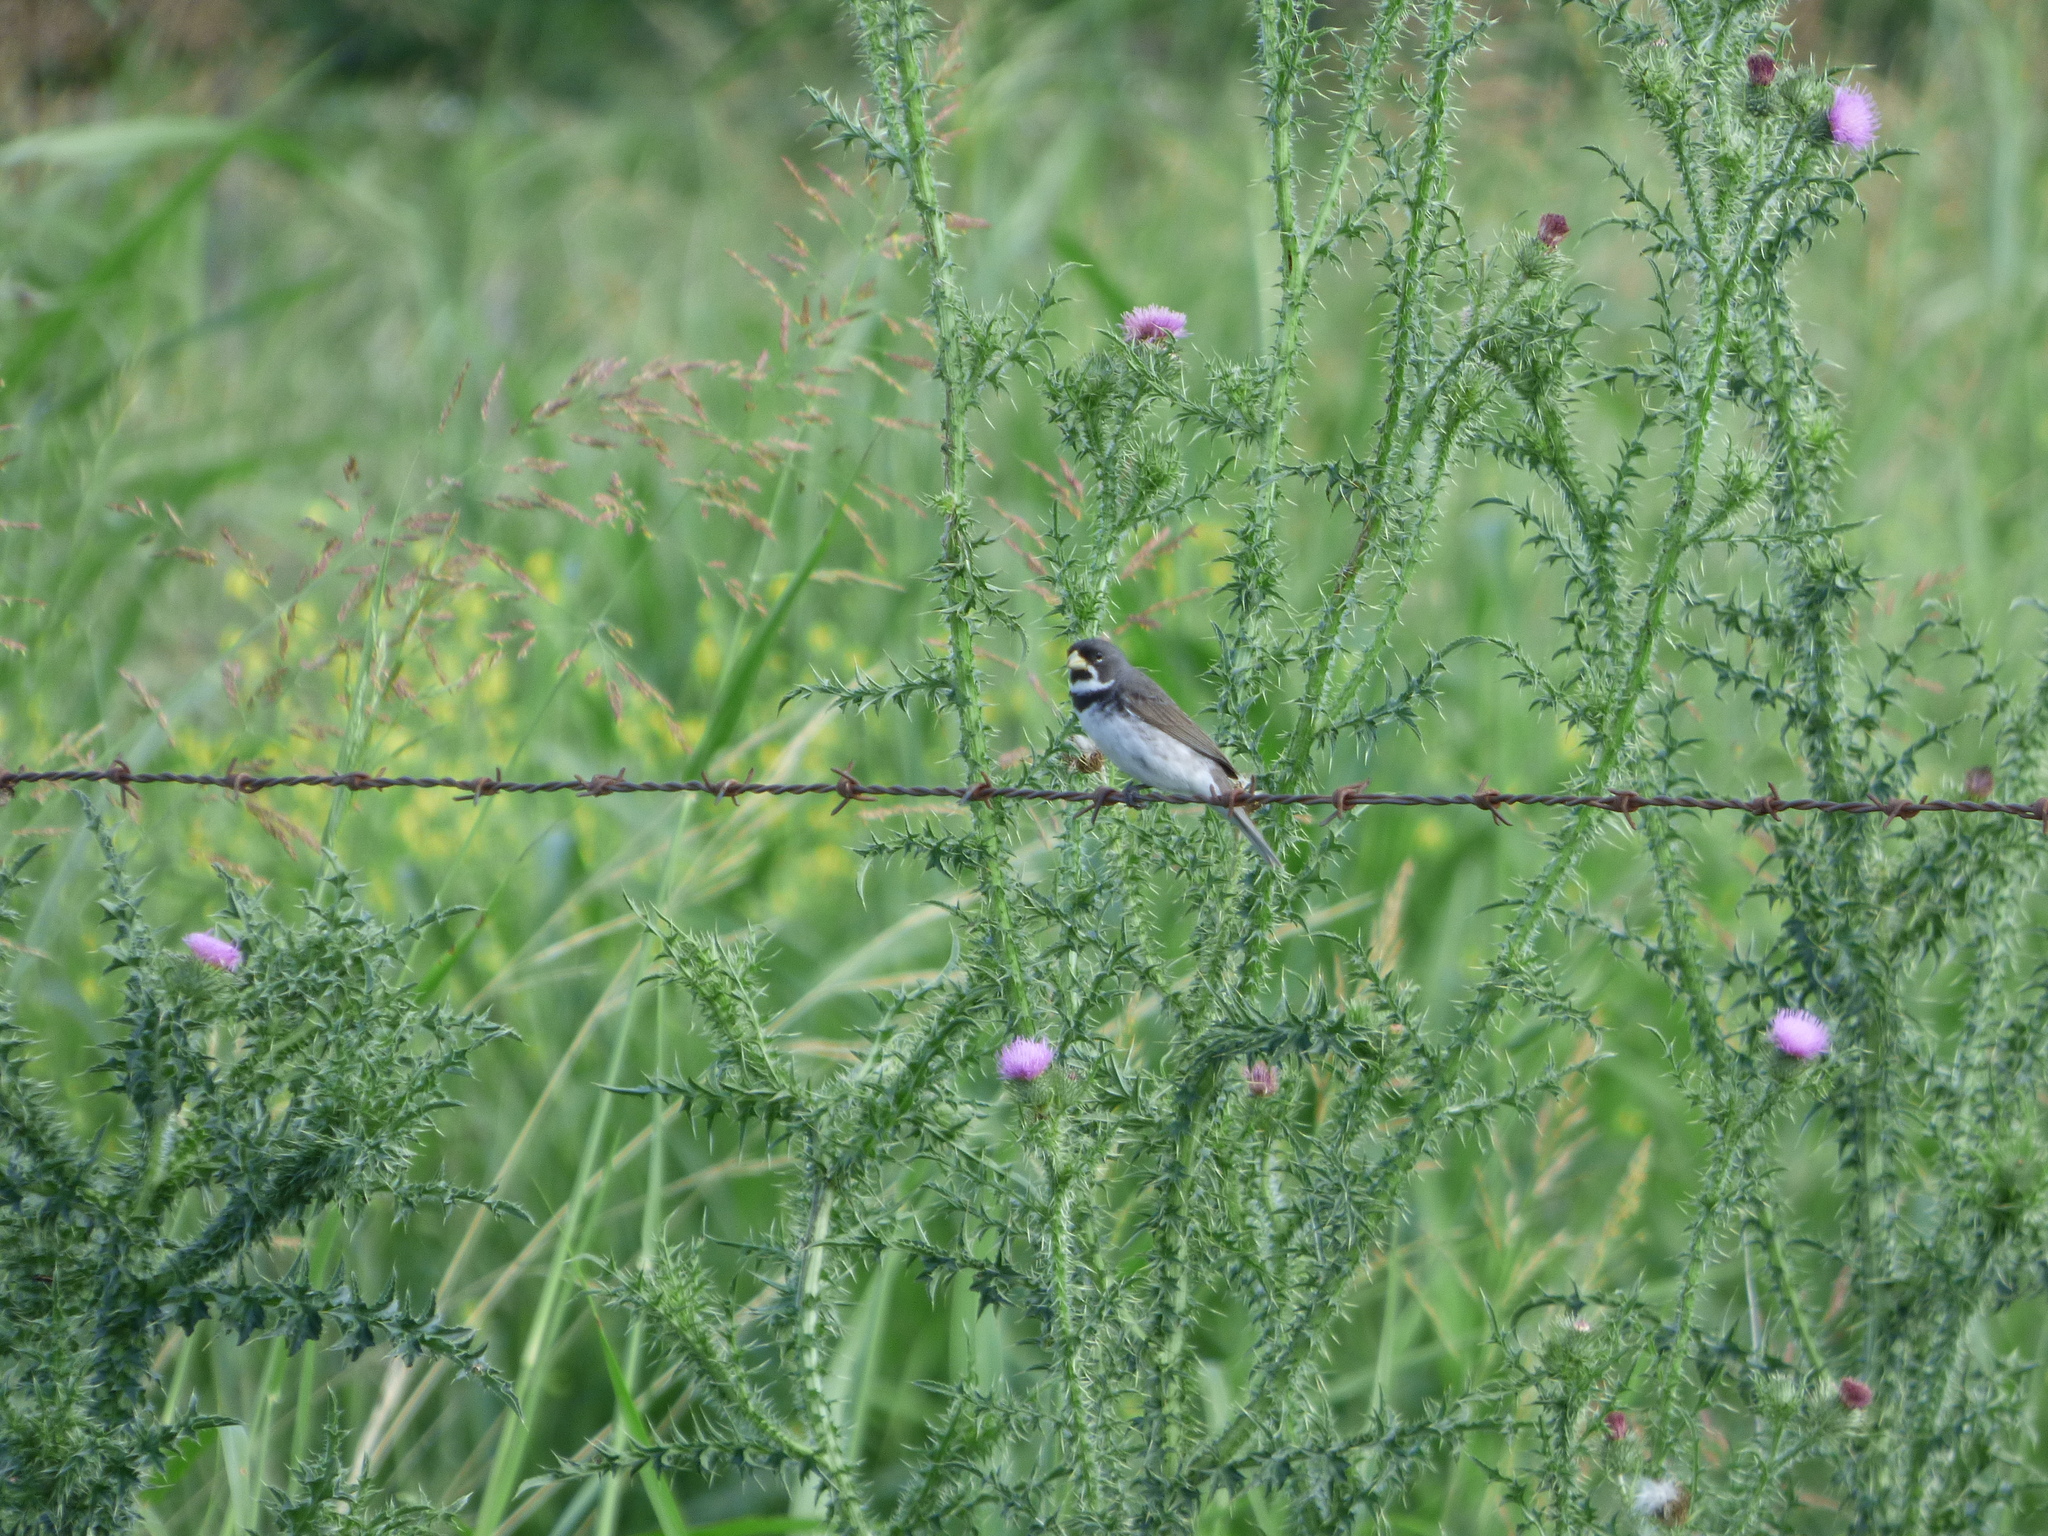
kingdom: Animalia
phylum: Chordata
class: Aves
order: Passeriformes
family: Thraupidae
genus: Sporophila
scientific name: Sporophila caerulescens
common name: Double-collared seedeater
